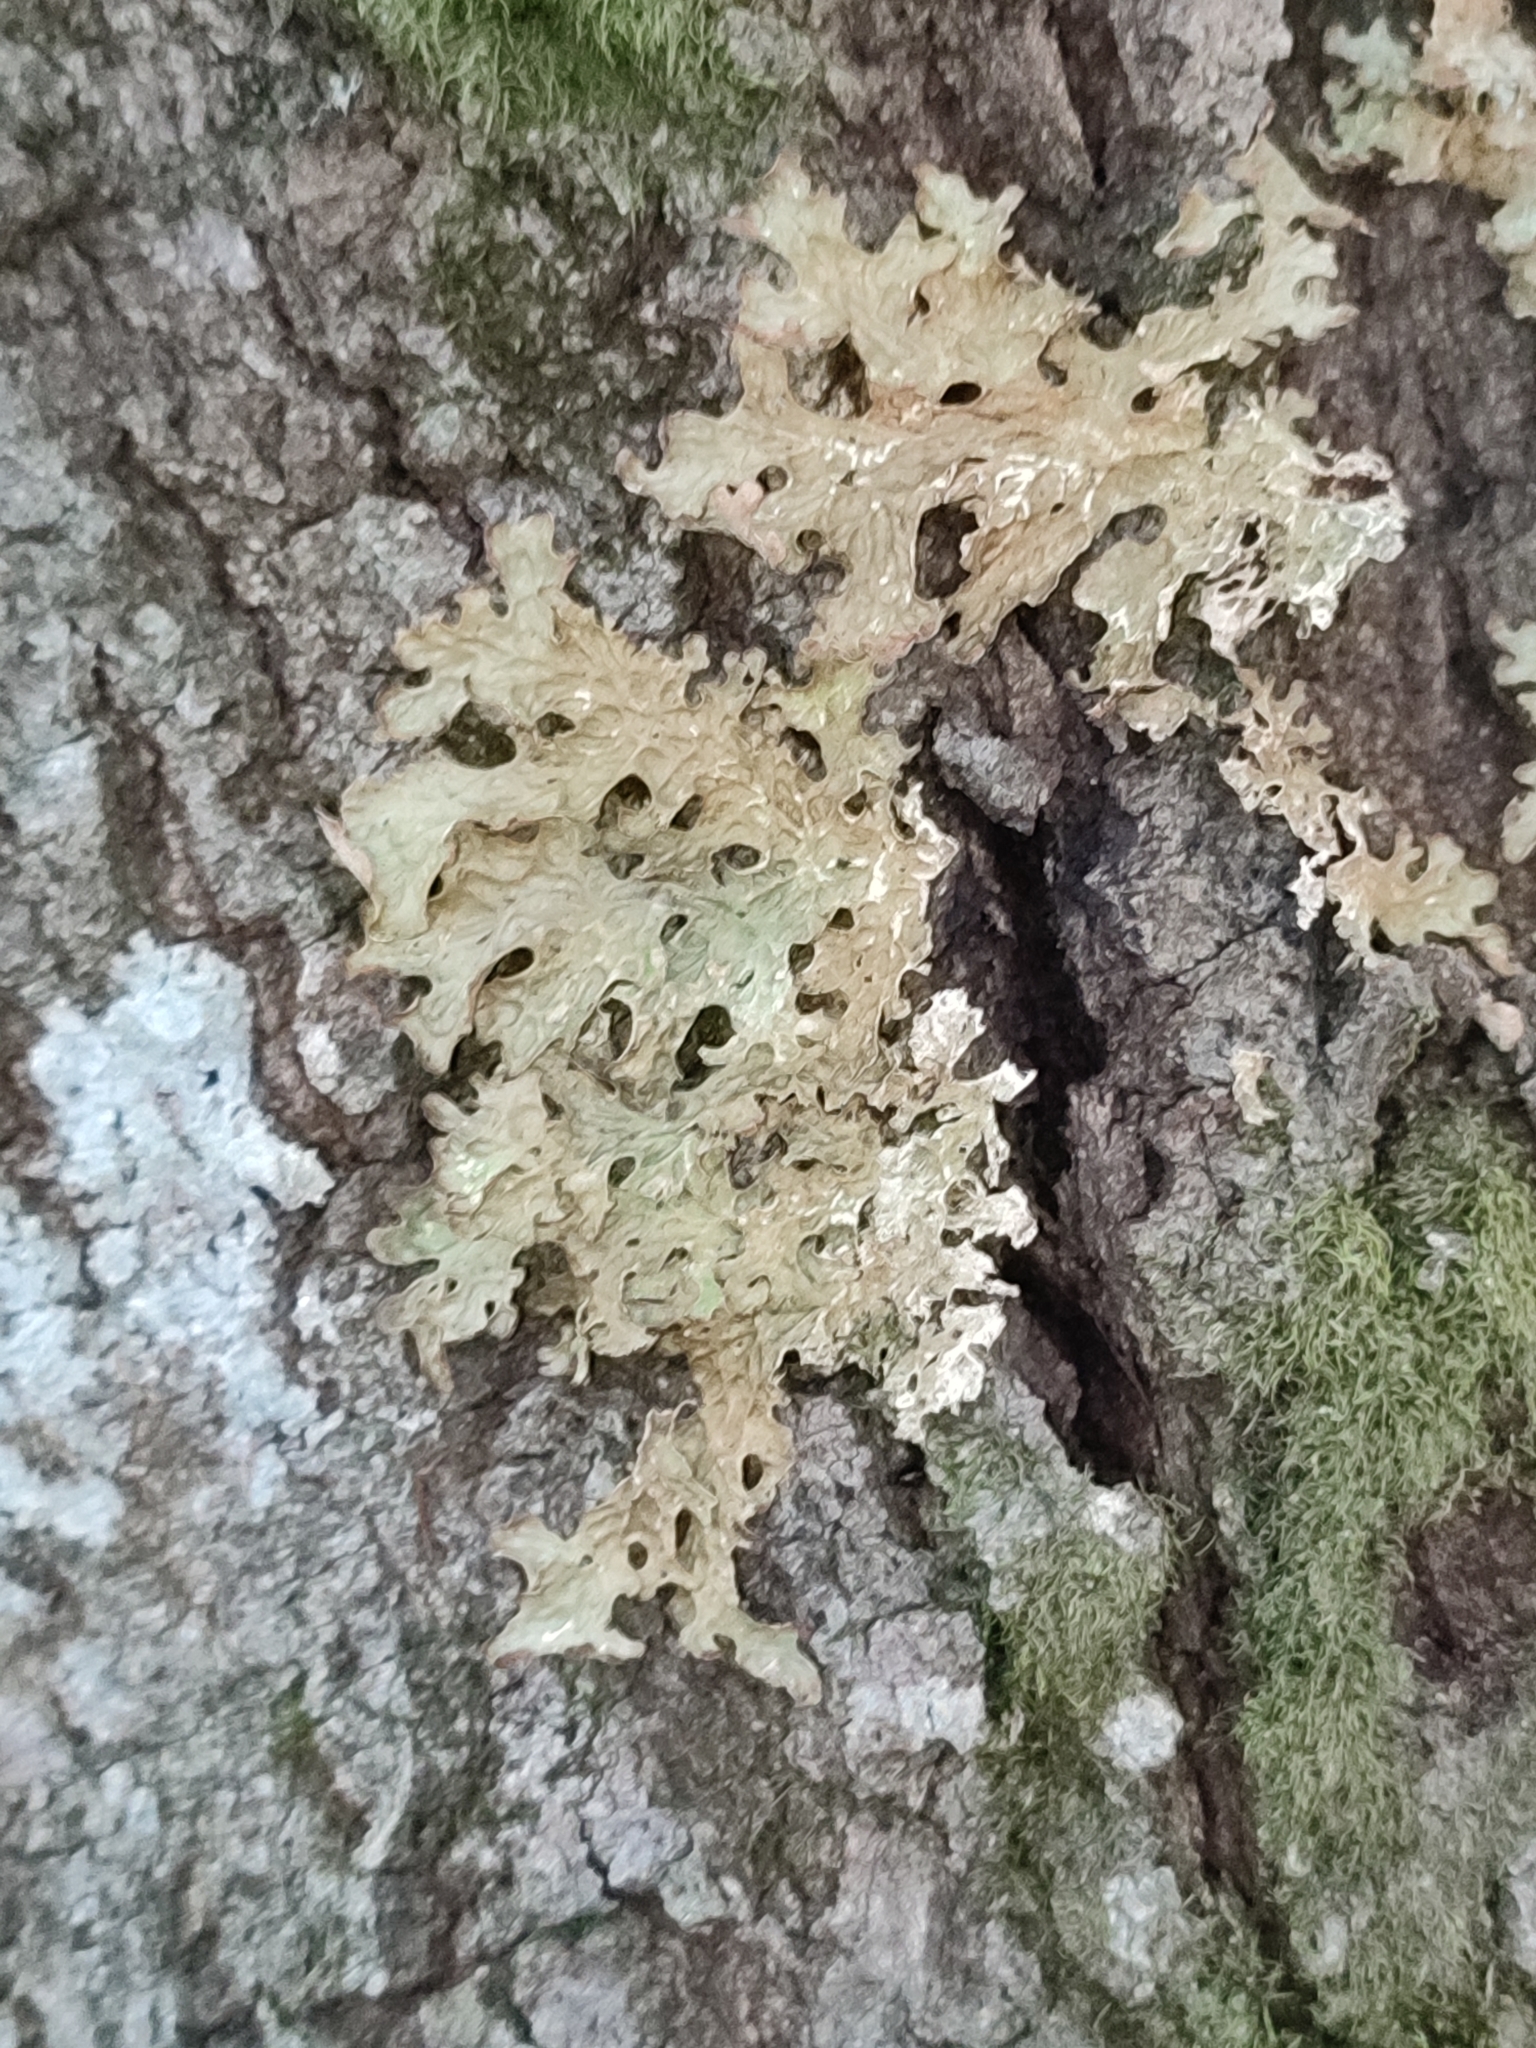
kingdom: Fungi
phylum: Ascomycota
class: Lecanoromycetes
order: Peltigerales
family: Lobariaceae
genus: Lobaria
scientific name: Lobaria pulmonaria
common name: Lungwort
